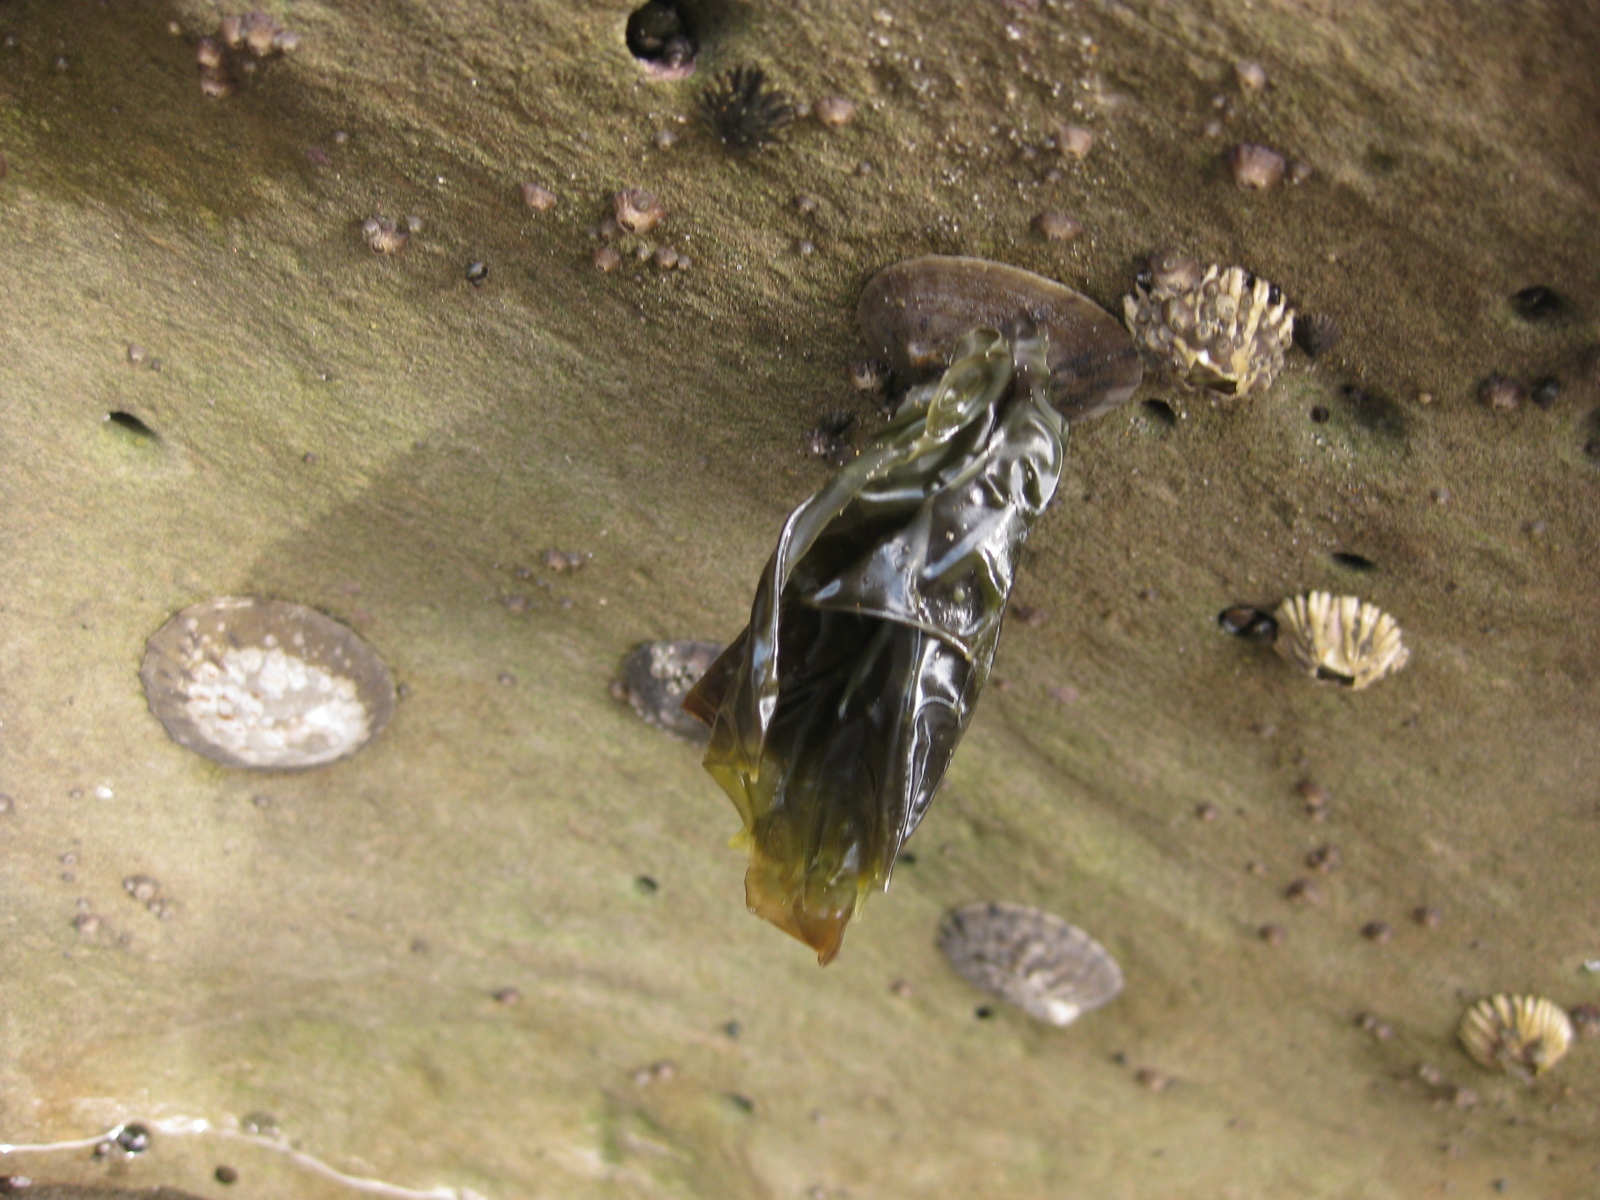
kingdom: Animalia
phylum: Mollusca
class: Gastropoda
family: Nacellidae
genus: Cellana
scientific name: Cellana radians
